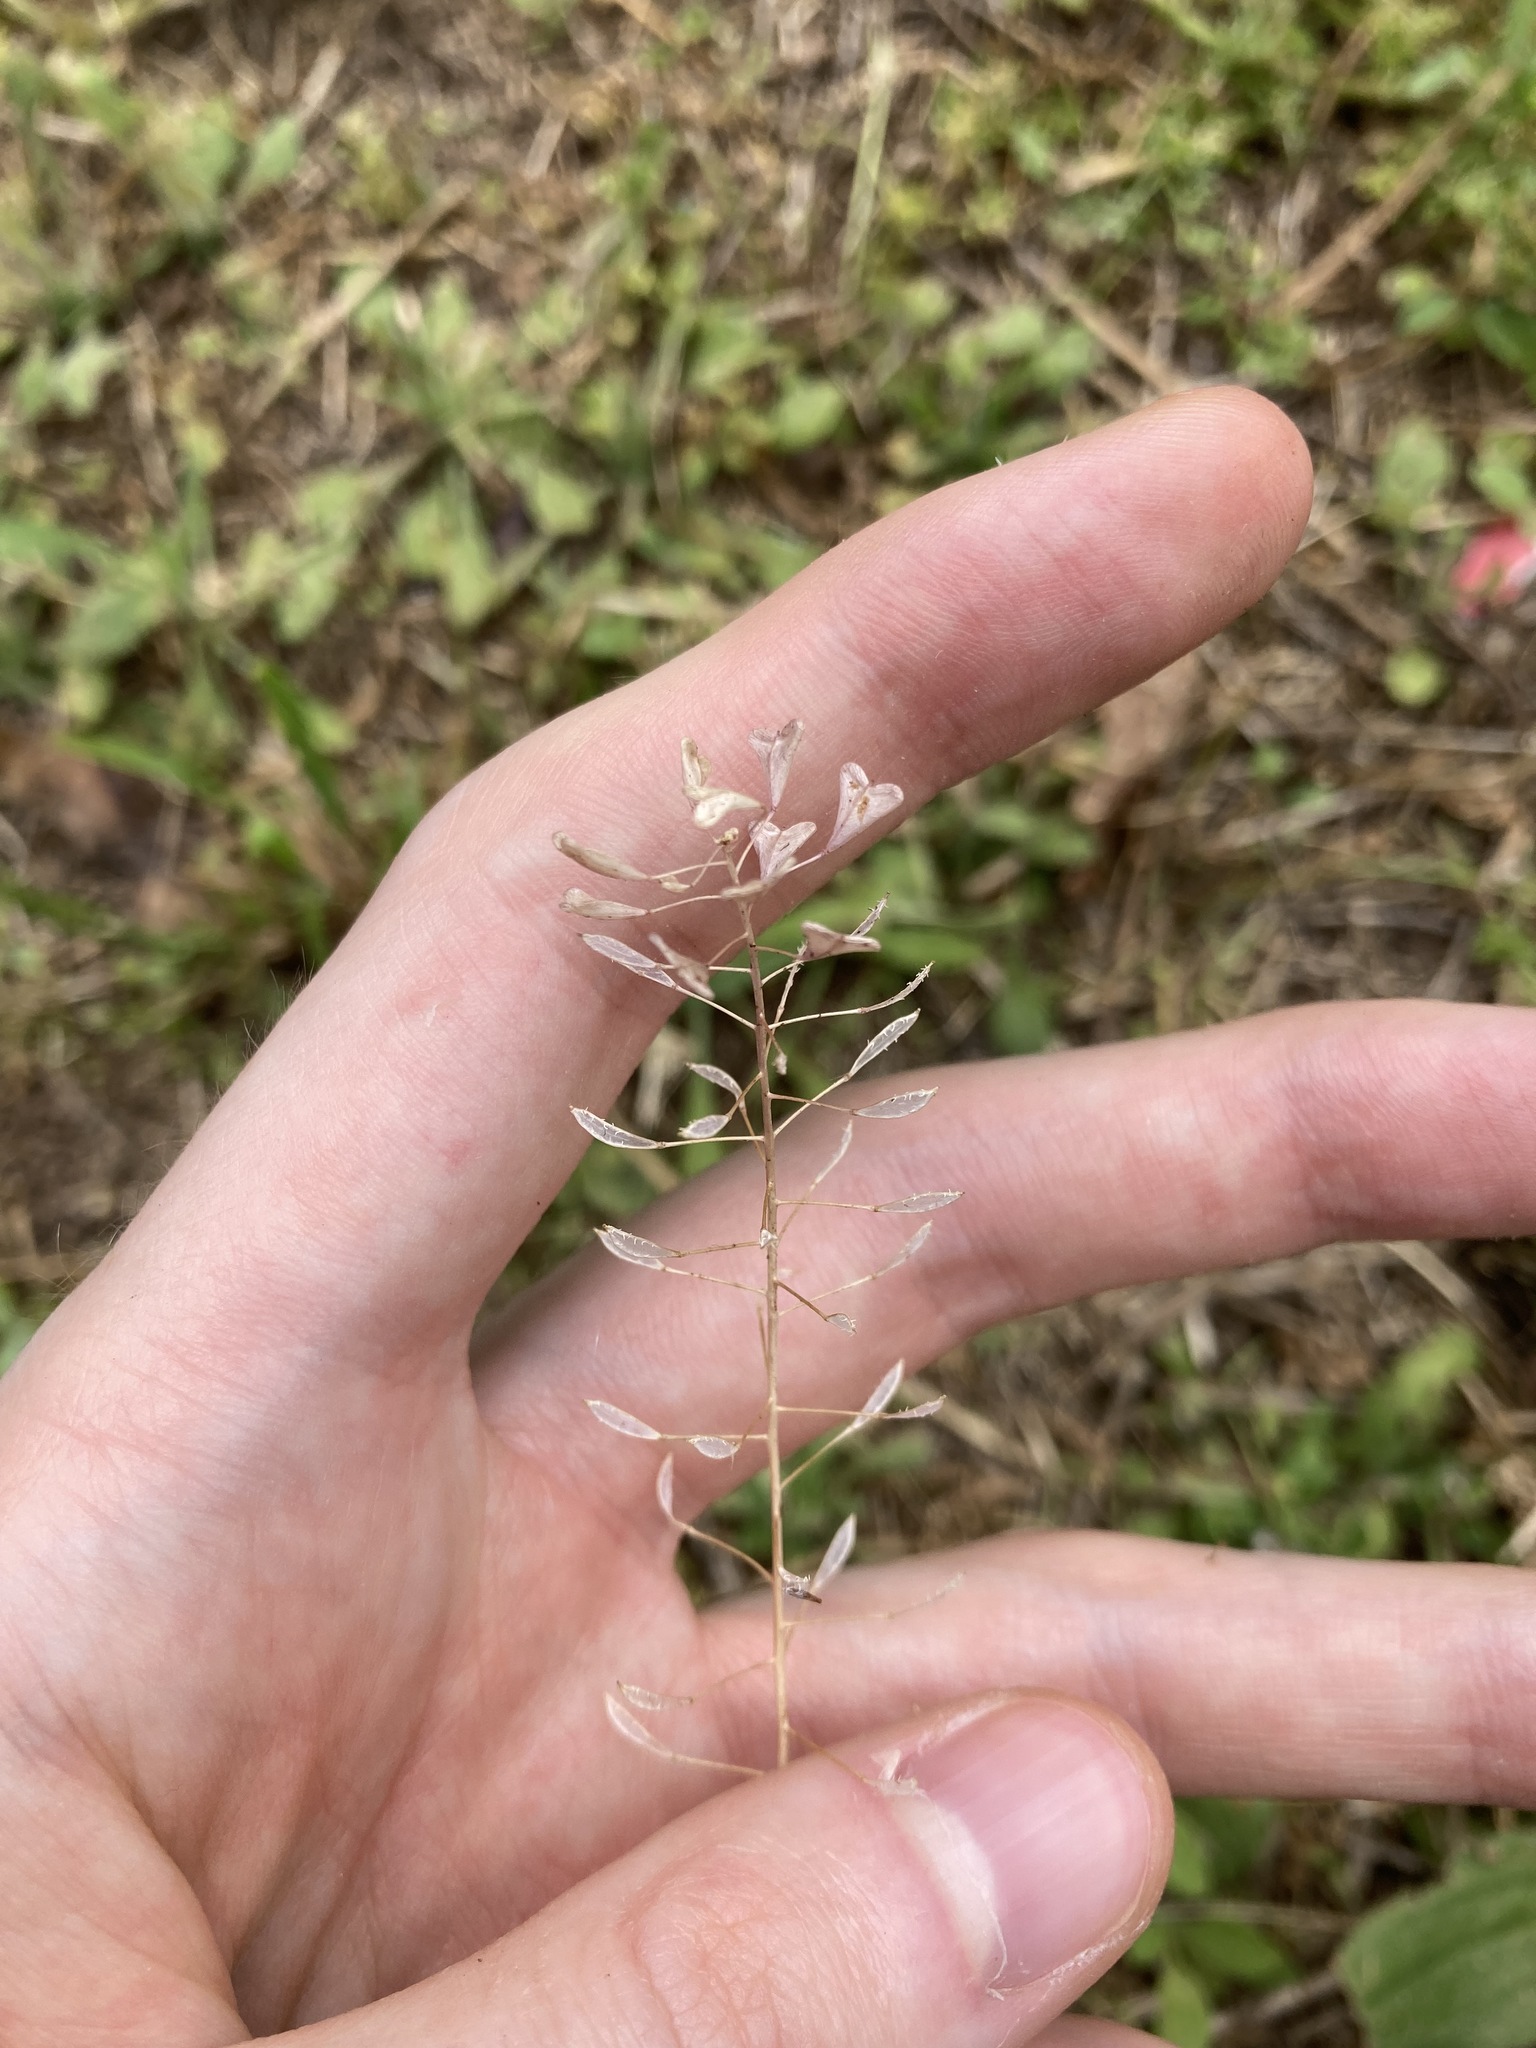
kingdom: Plantae
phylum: Tracheophyta
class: Magnoliopsida
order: Brassicales
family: Brassicaceae
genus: Capsella
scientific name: Capsella bursa-pastoris
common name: Shepherd's purse
